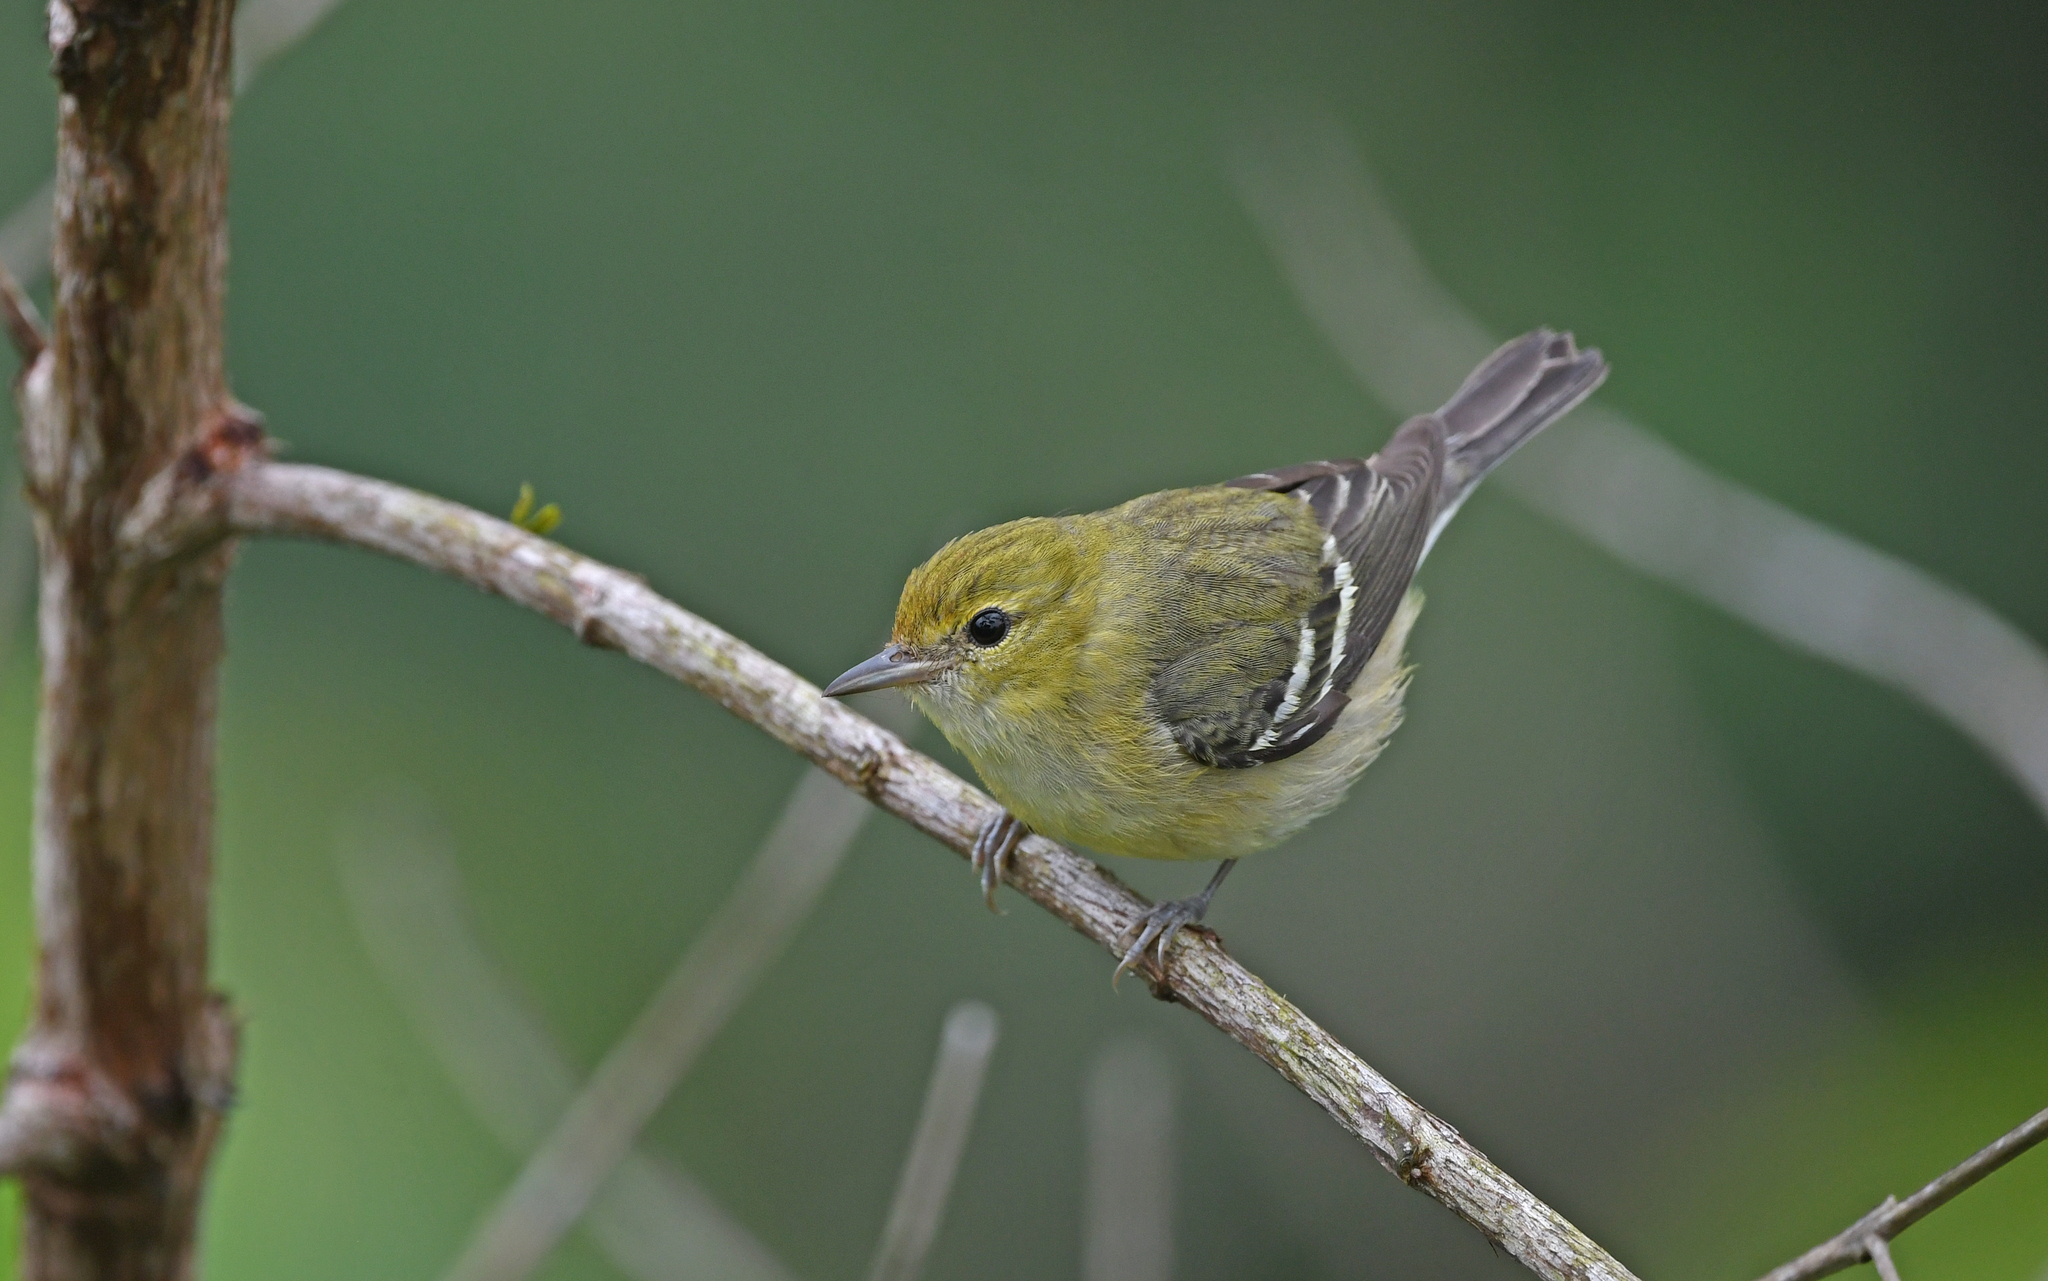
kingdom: Animalia
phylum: Chordata
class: Aves
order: Passeriformes
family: Parulidae
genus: Setophaga
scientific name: Setophaga castanea
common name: Bay-breasted warbler
